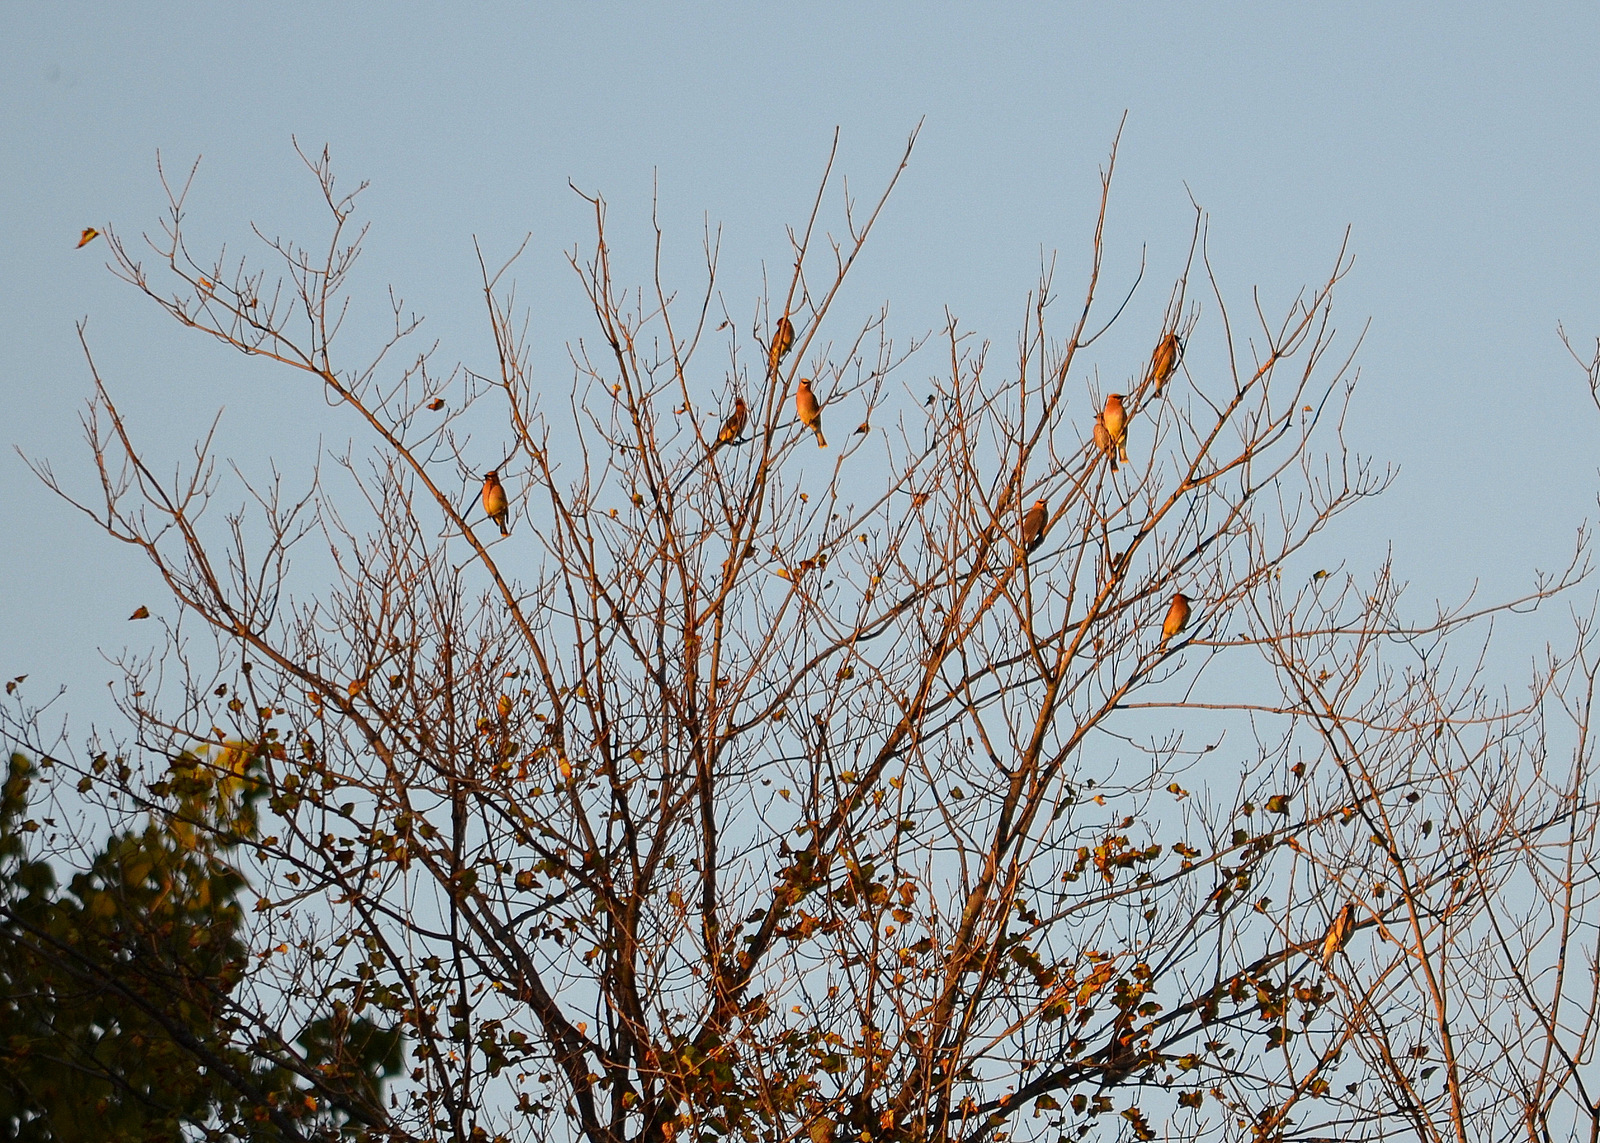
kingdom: Animalia
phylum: Chordata
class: Aves
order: Passeriformes
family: Bombycillidae
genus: Bombycilla
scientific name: Bombycilla cedrorum
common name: Cedar waxwing
